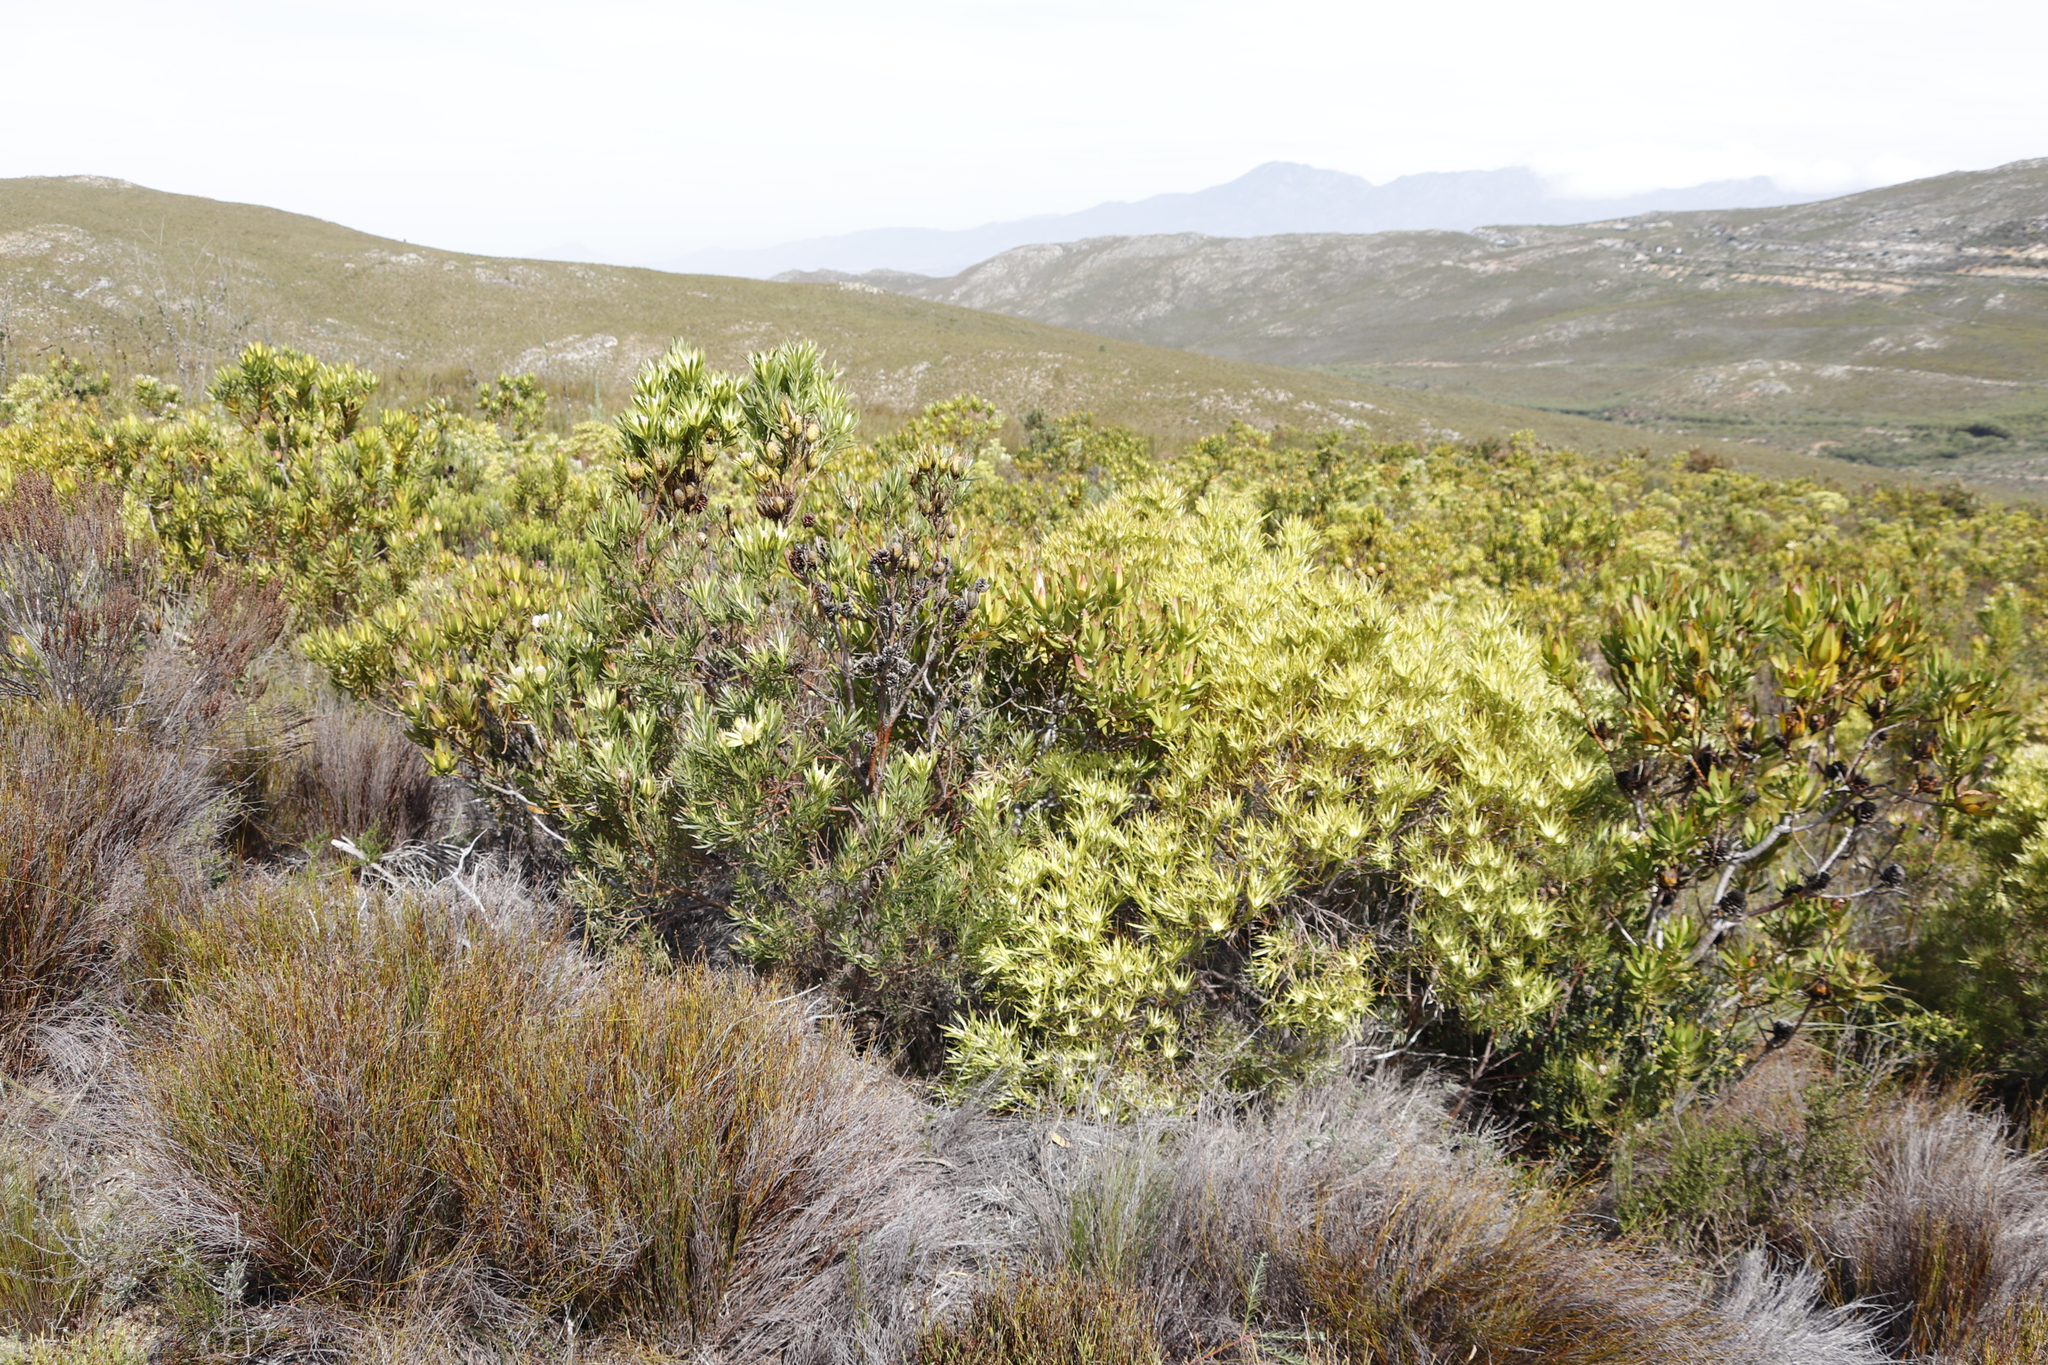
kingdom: Plantae
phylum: Tracheophyta
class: Magnoliopsida
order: Proteales
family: Proteaceae
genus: Leucadendron
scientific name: Leucadendron xanthoconus
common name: Sickle-leaf conebush
